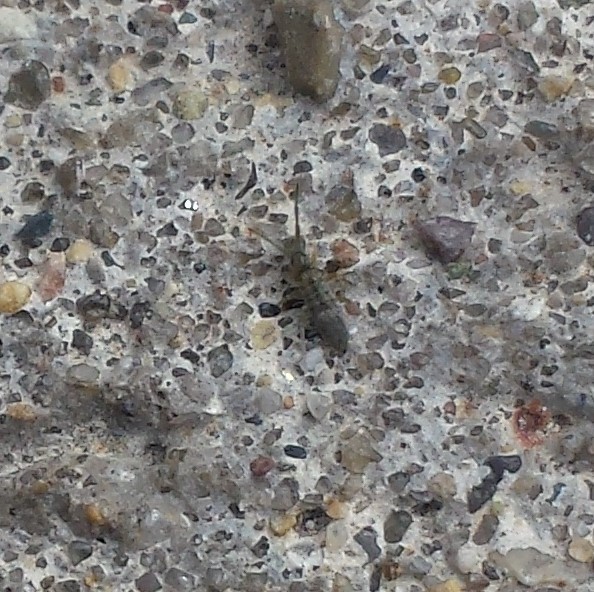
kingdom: Animalia
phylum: Arthropoda
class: Collembola
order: Entomobryomorpha
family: Entomobryidae
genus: Entomobrya
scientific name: Entomobrya unostrigata
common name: Springtail
